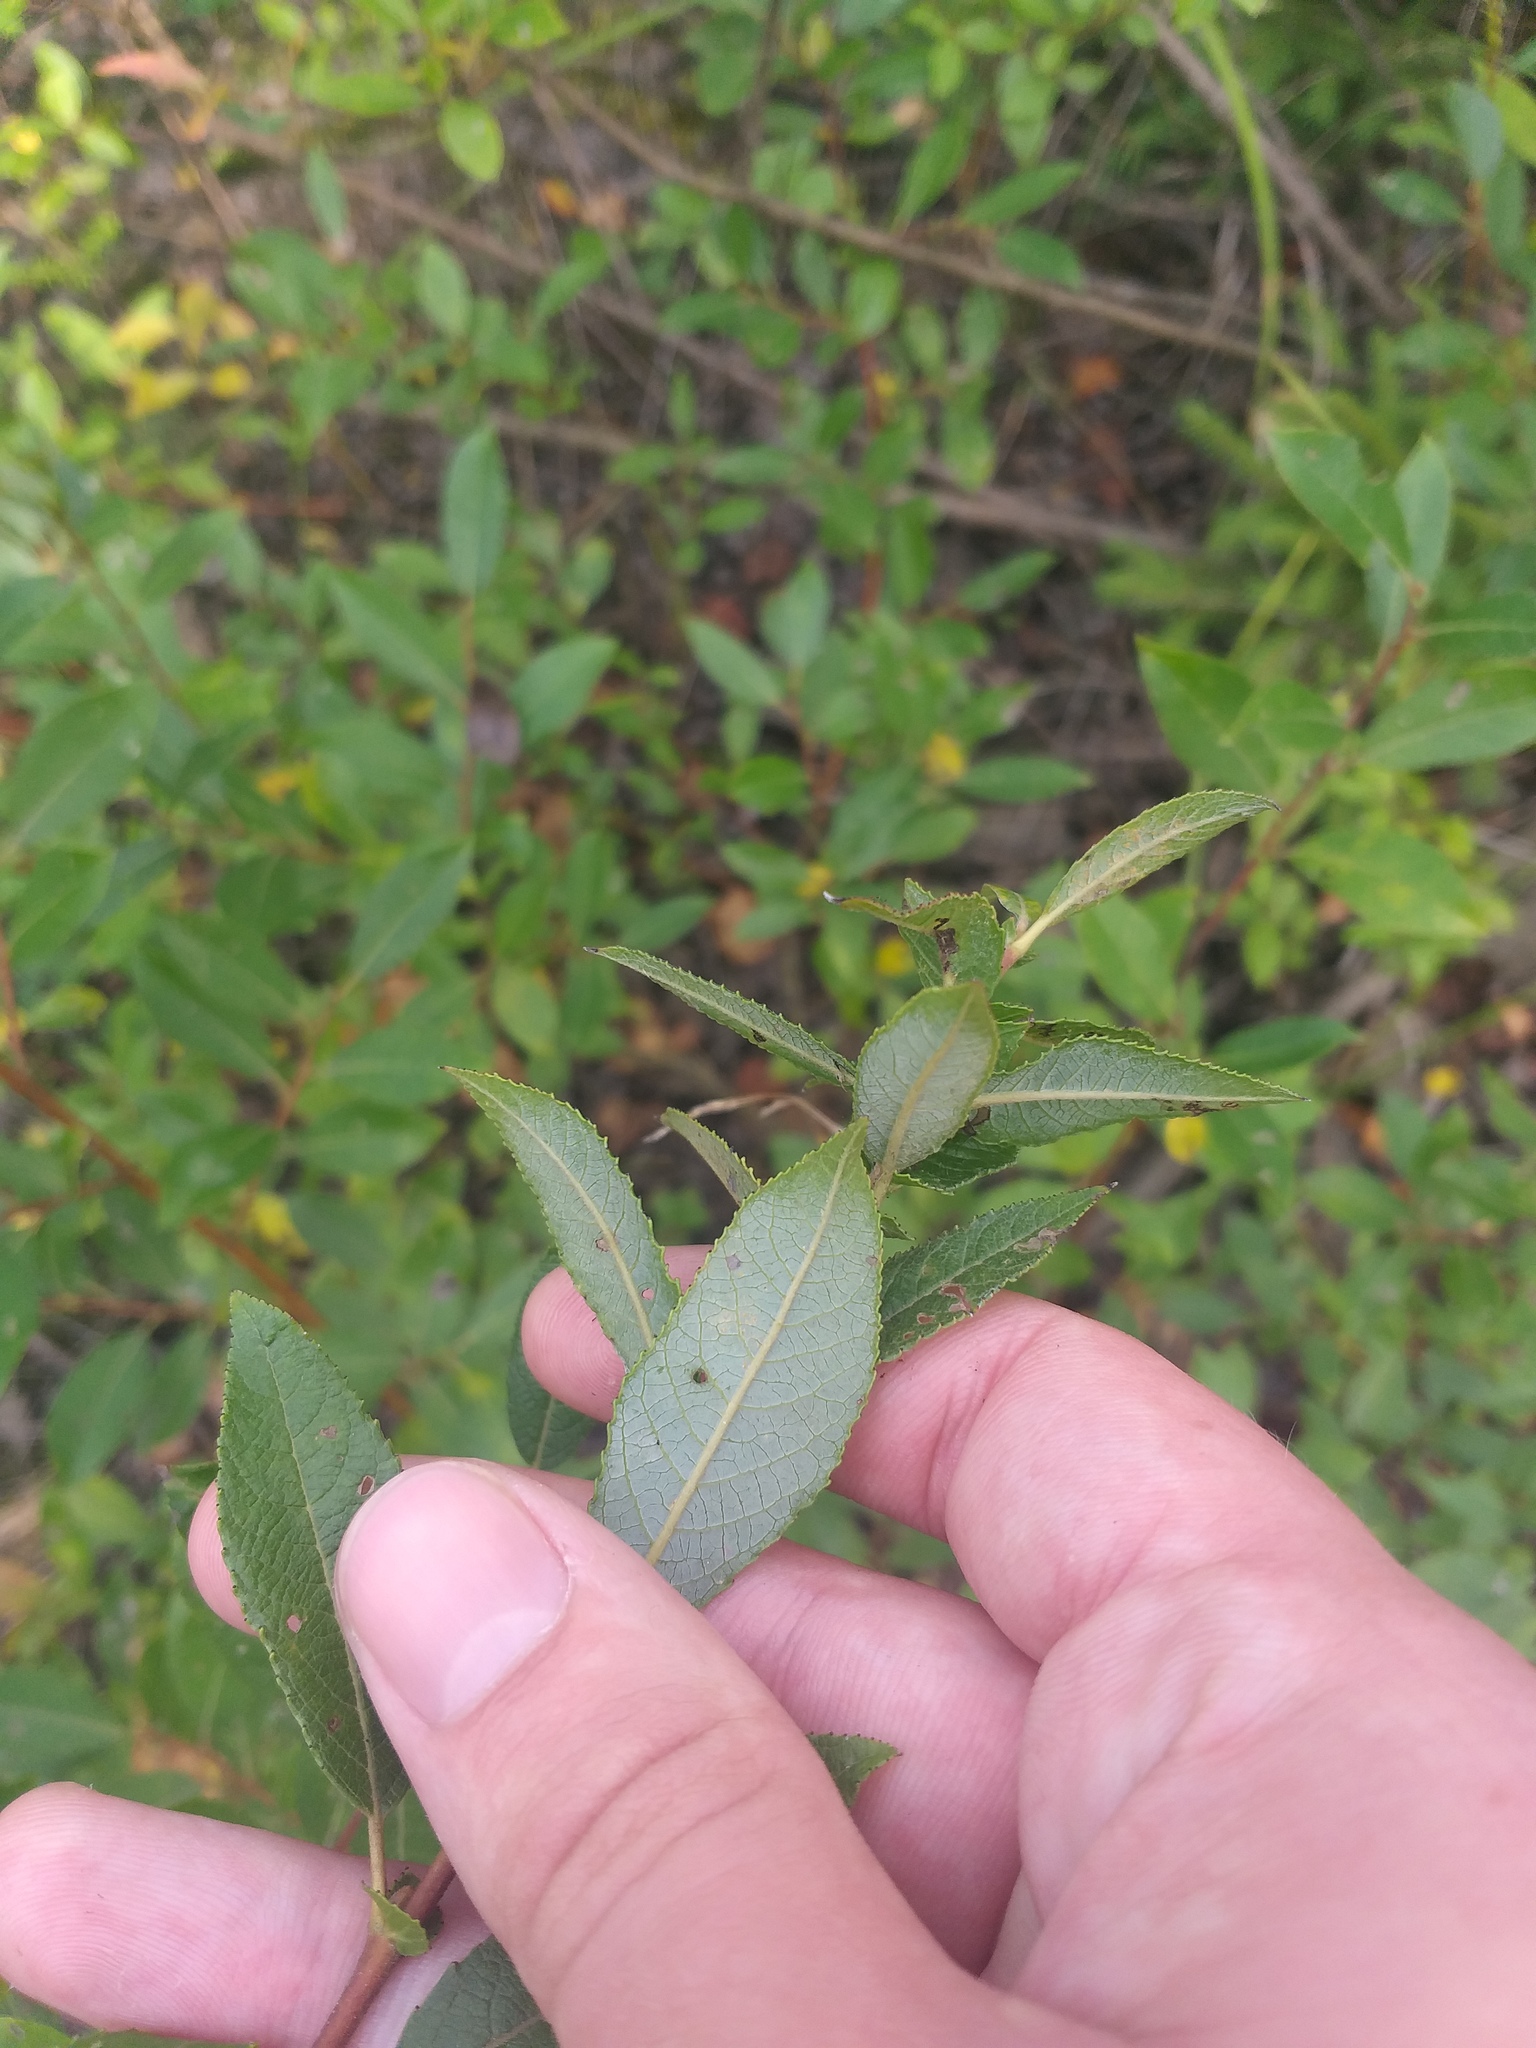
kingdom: Plantae
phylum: Tracheophyta
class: Magnoliopsida
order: Malpighiales
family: Salicaceae
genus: Salix
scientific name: Salix myrsinifolia
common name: Dark-leaved willow
